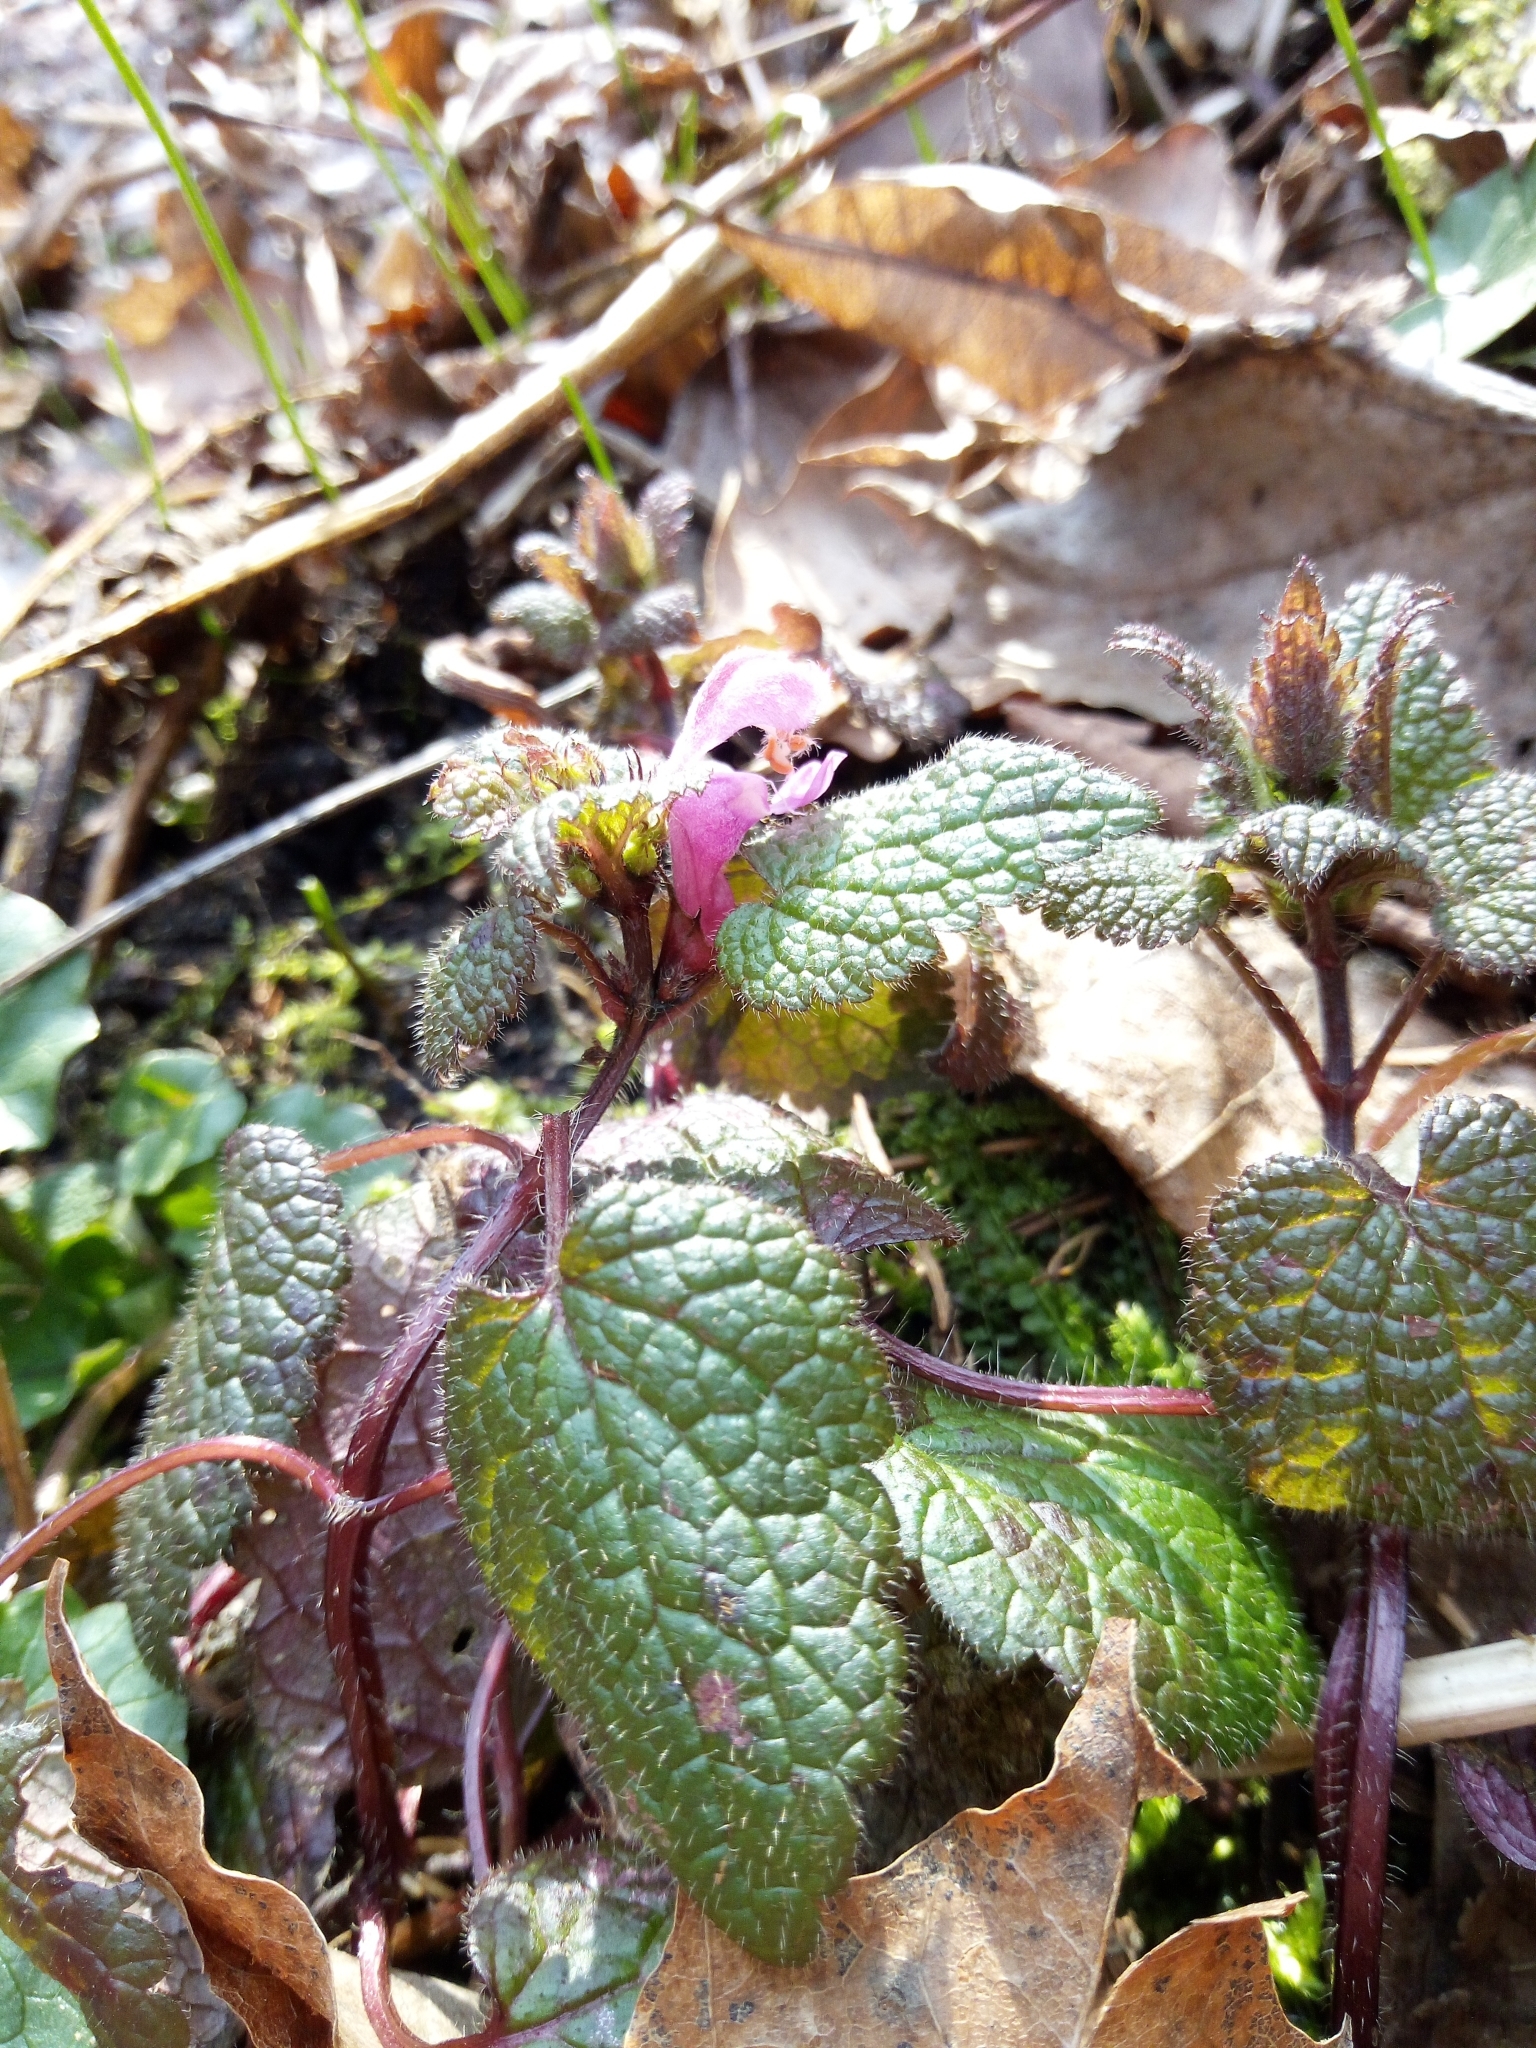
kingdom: Plantae
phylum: Tracheophyta
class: Magnoliopsida
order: Lamiales
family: Lamiaceae
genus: Lamium
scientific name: Lamium maculatum
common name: Spotted dead-nettle
